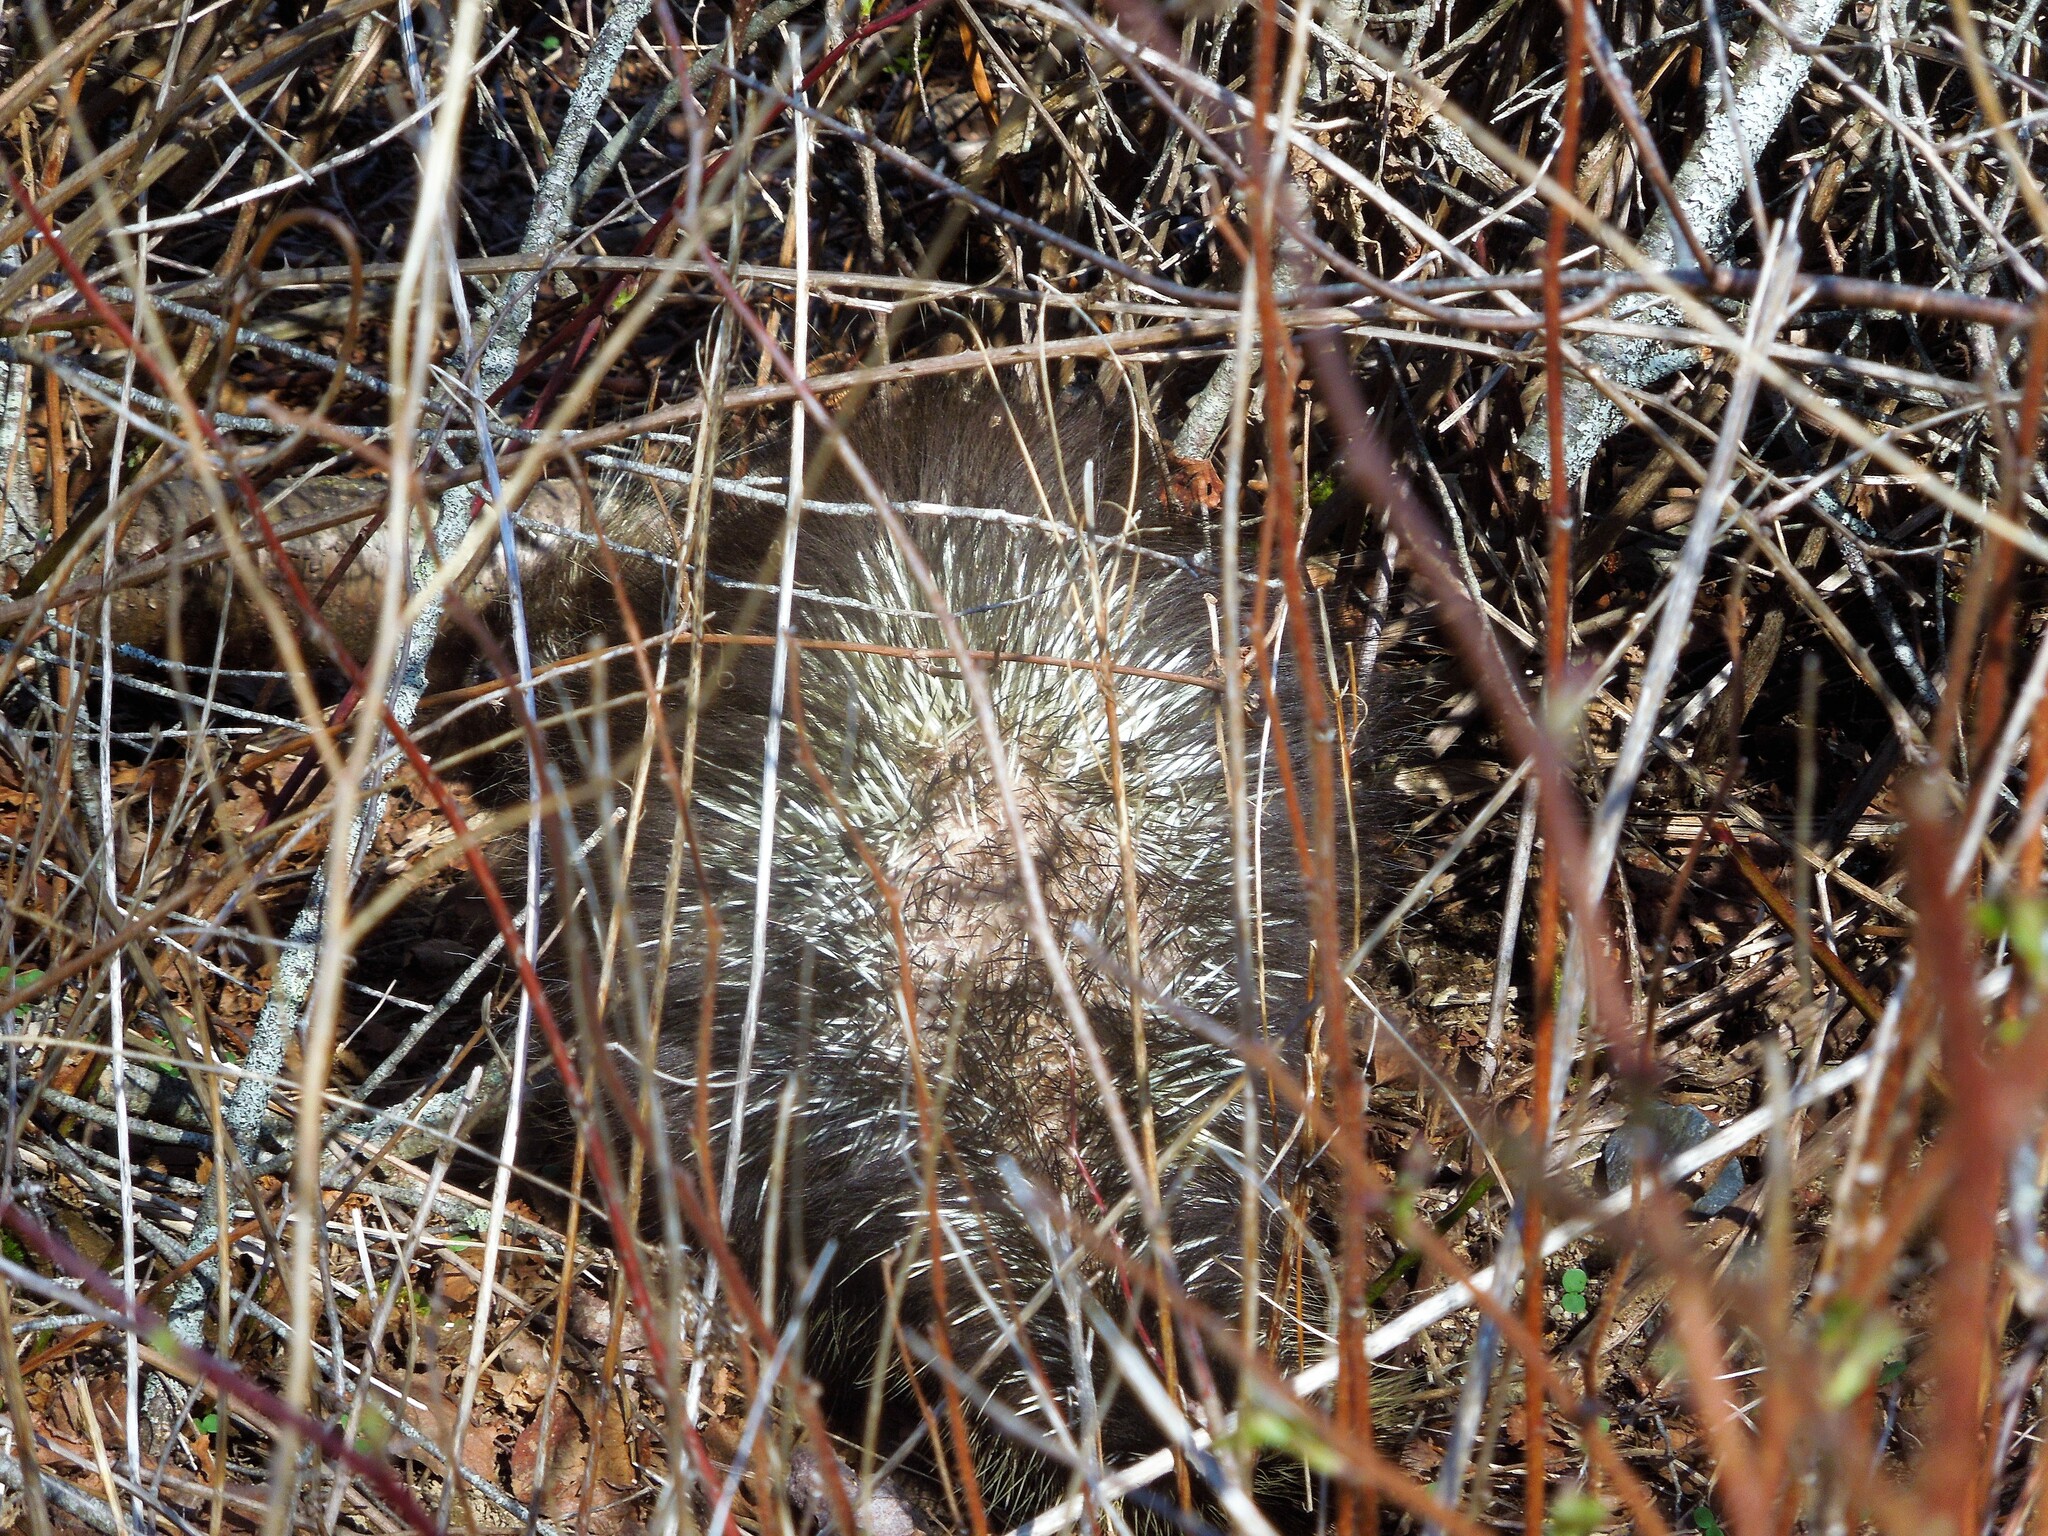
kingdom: Animalia
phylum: Chordata
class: Mammalia
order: Rodentia
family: Erethizontidae
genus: Erethizon
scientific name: Erethizon dorsatus
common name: North american porcupine
